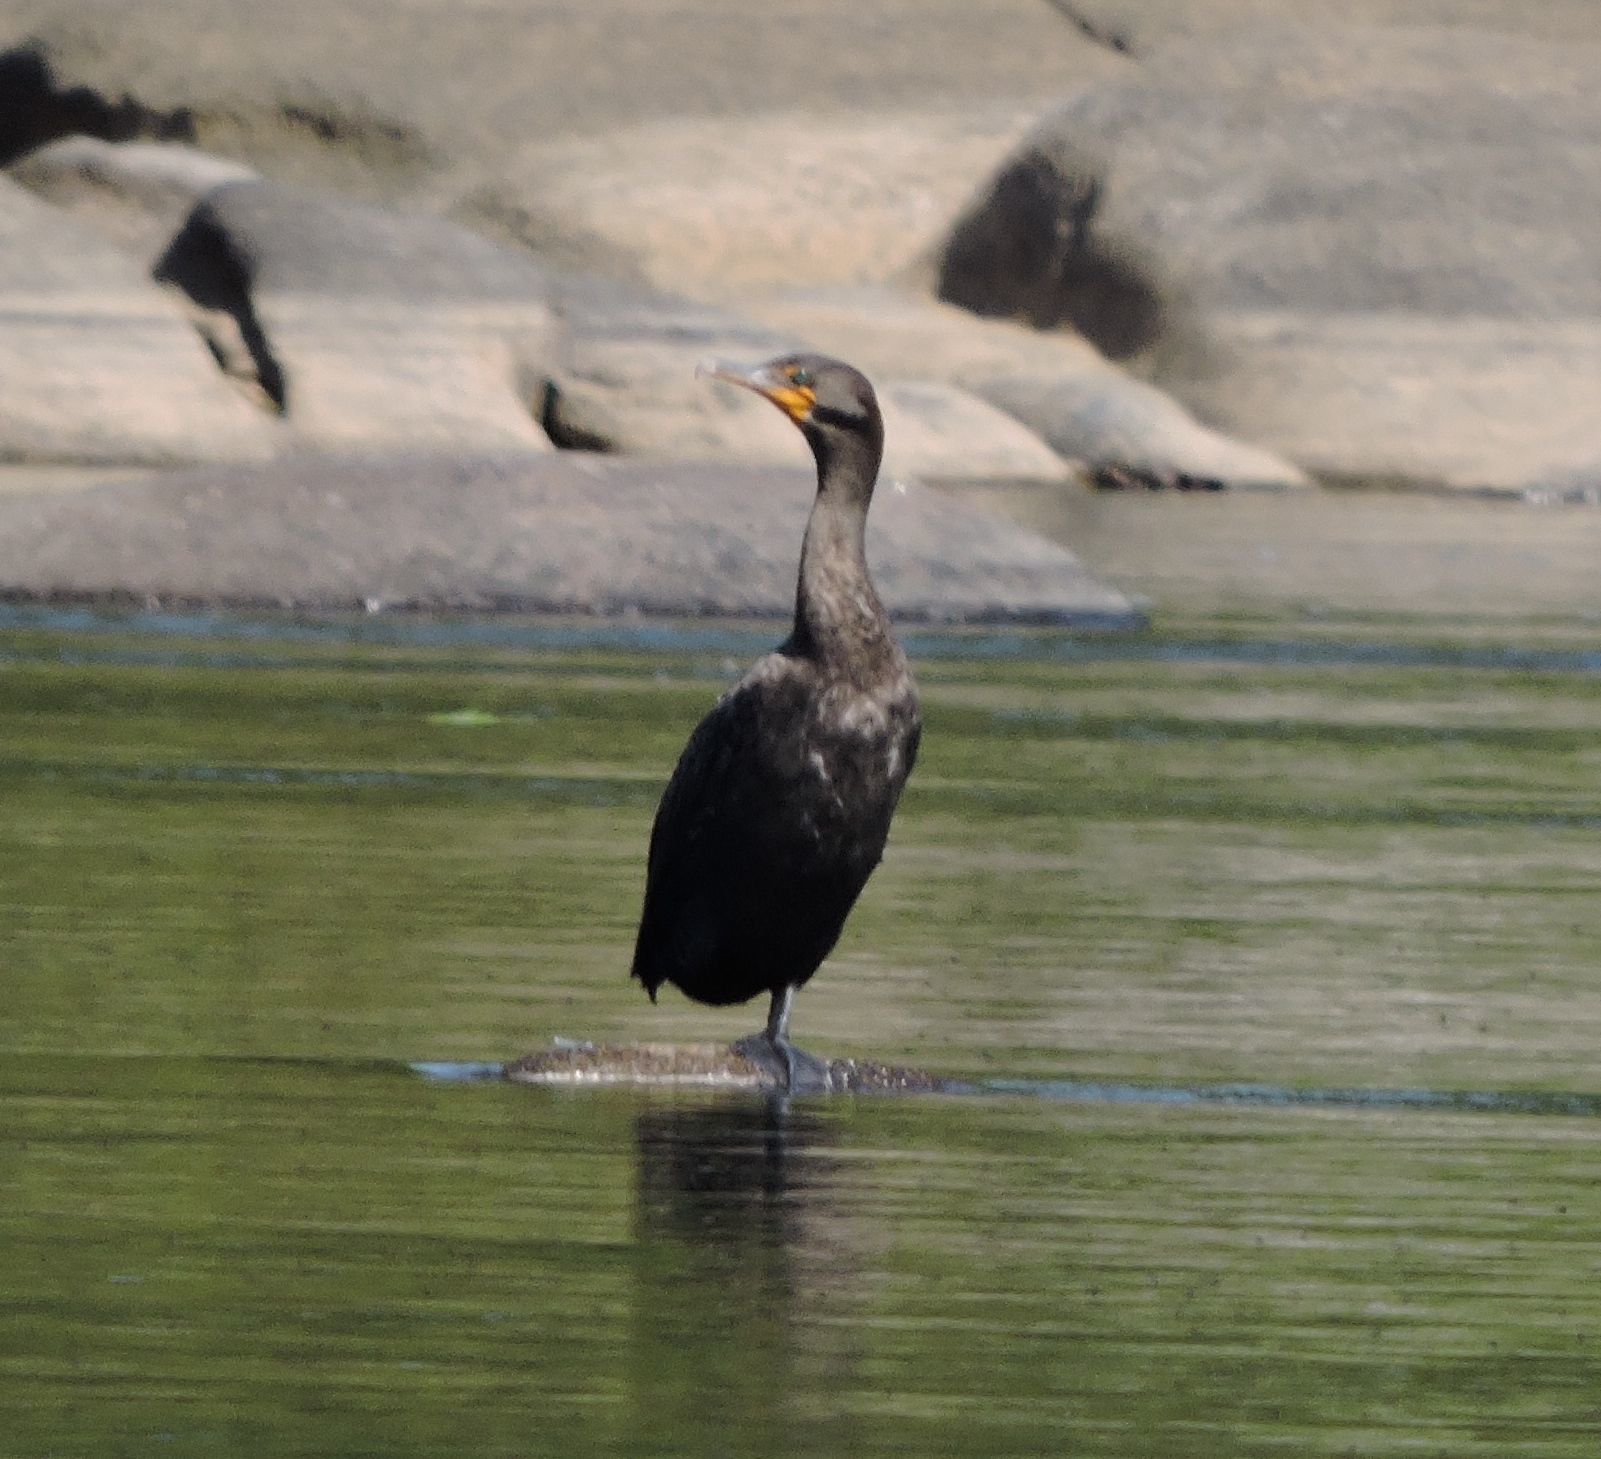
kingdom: Animalia
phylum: Chordata
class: Aves
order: Suliformes
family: Phalacrocoracidae
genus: Phalacrocorax
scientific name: Phalacrocorax auritus
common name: Double-crested cormorant
